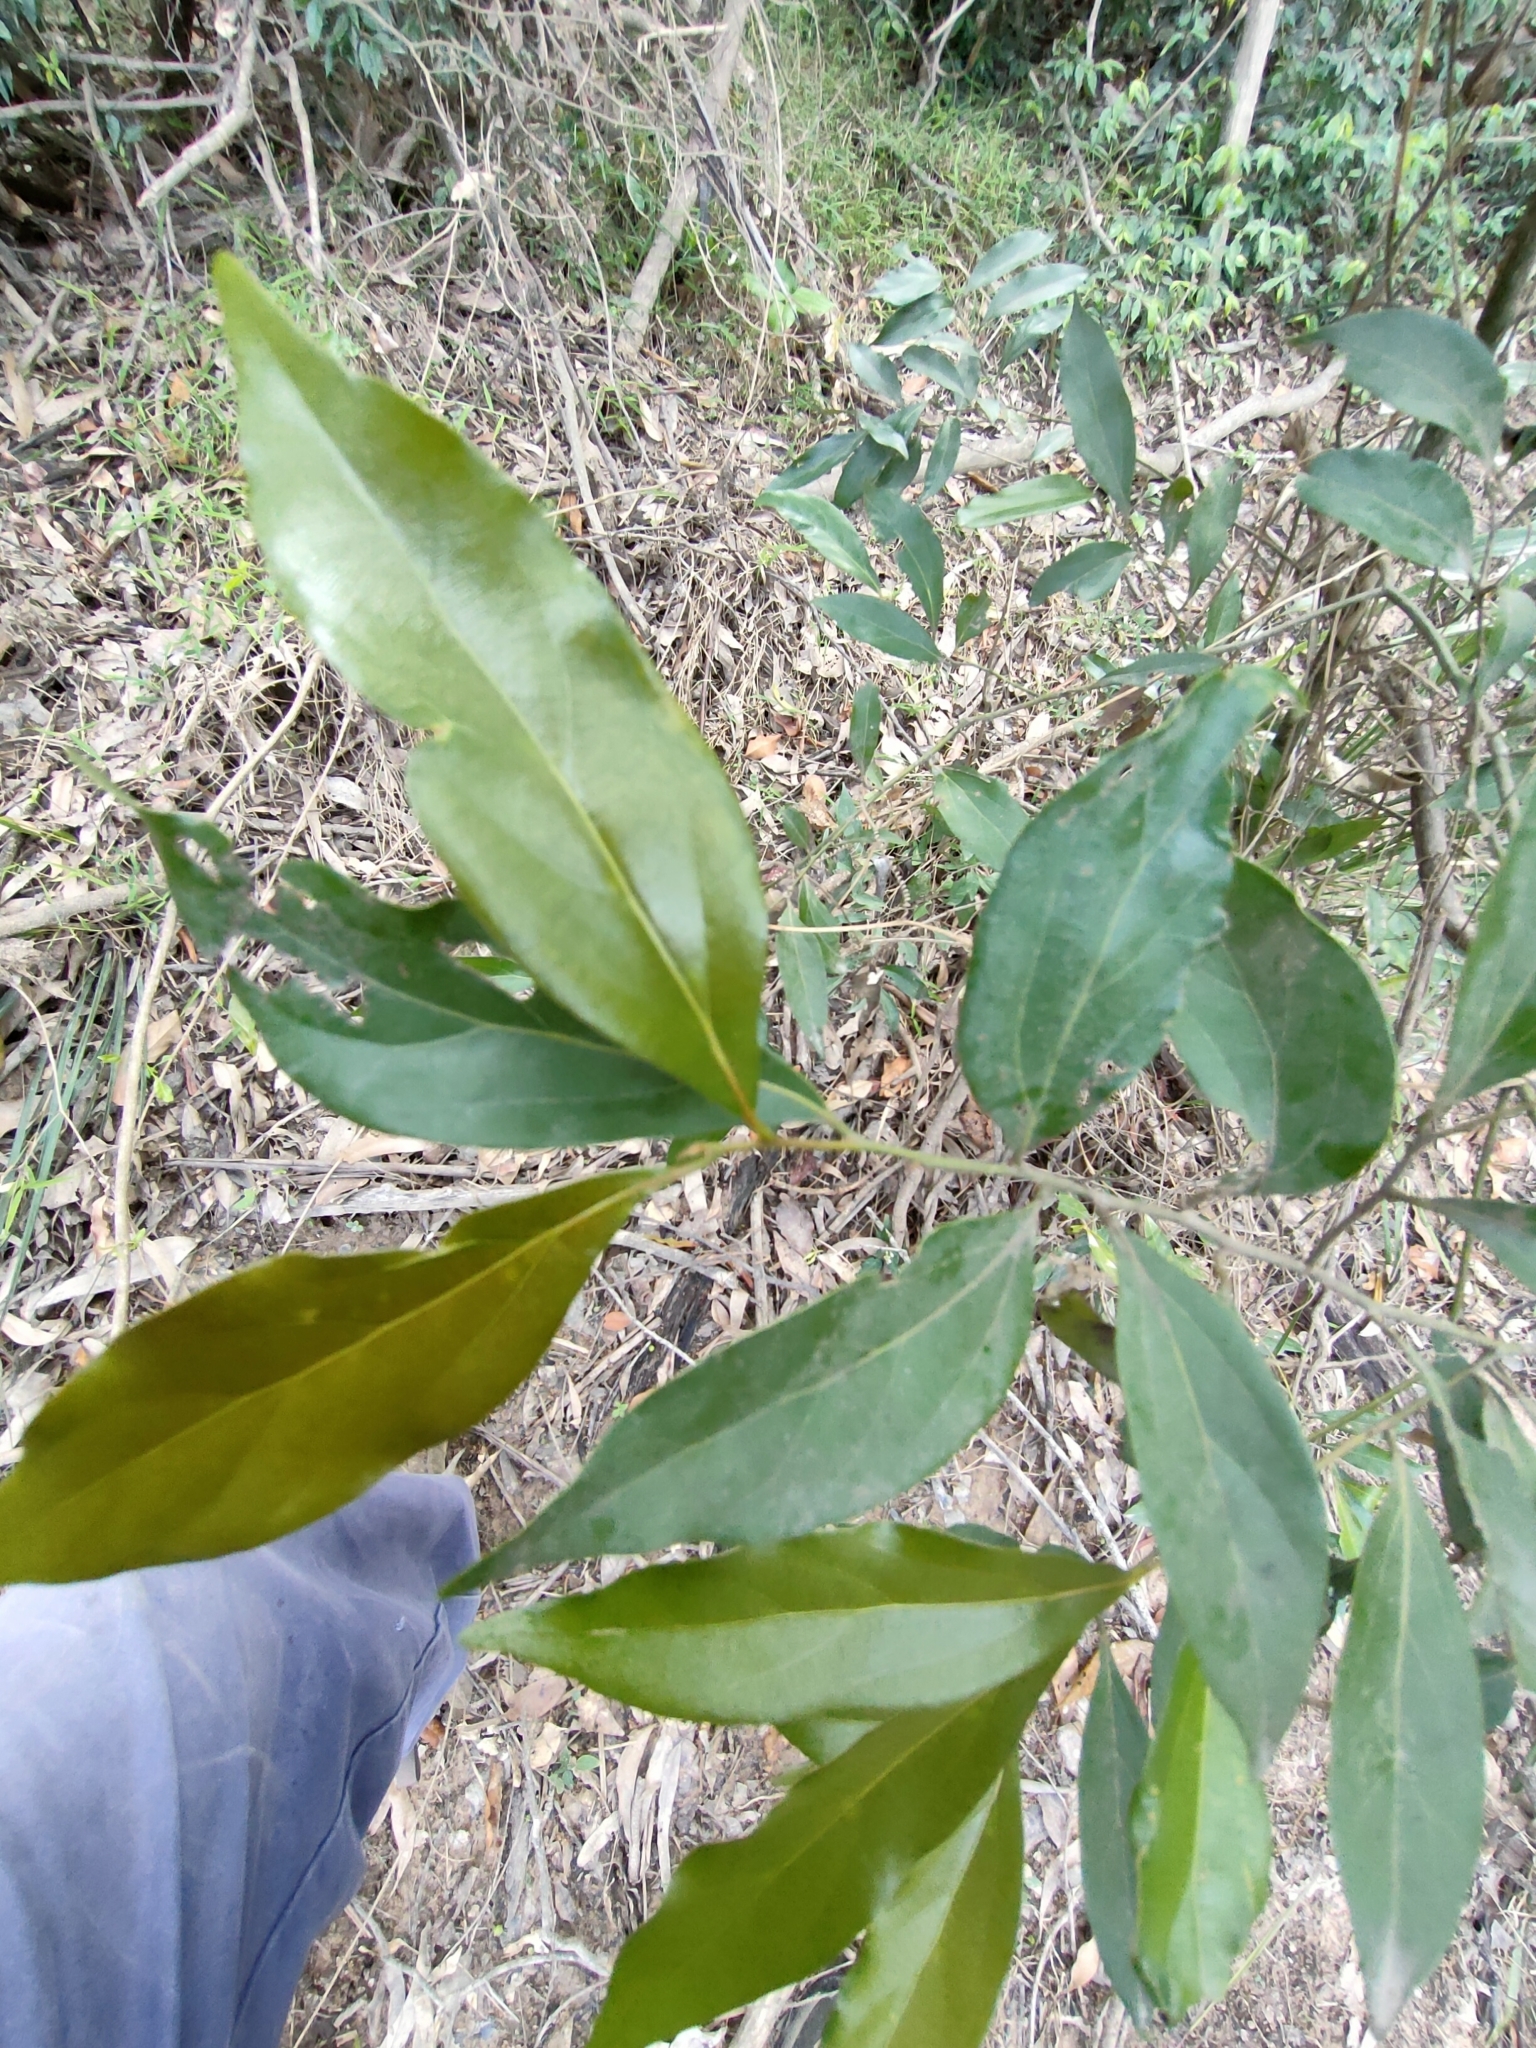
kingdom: Plantae
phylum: Tracheophyta
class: Magnoliopsida
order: Laurales
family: Lauraceae
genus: Cryptocarya
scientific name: Cryptocarya triplinervis
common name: Three-vein cryptocarya
